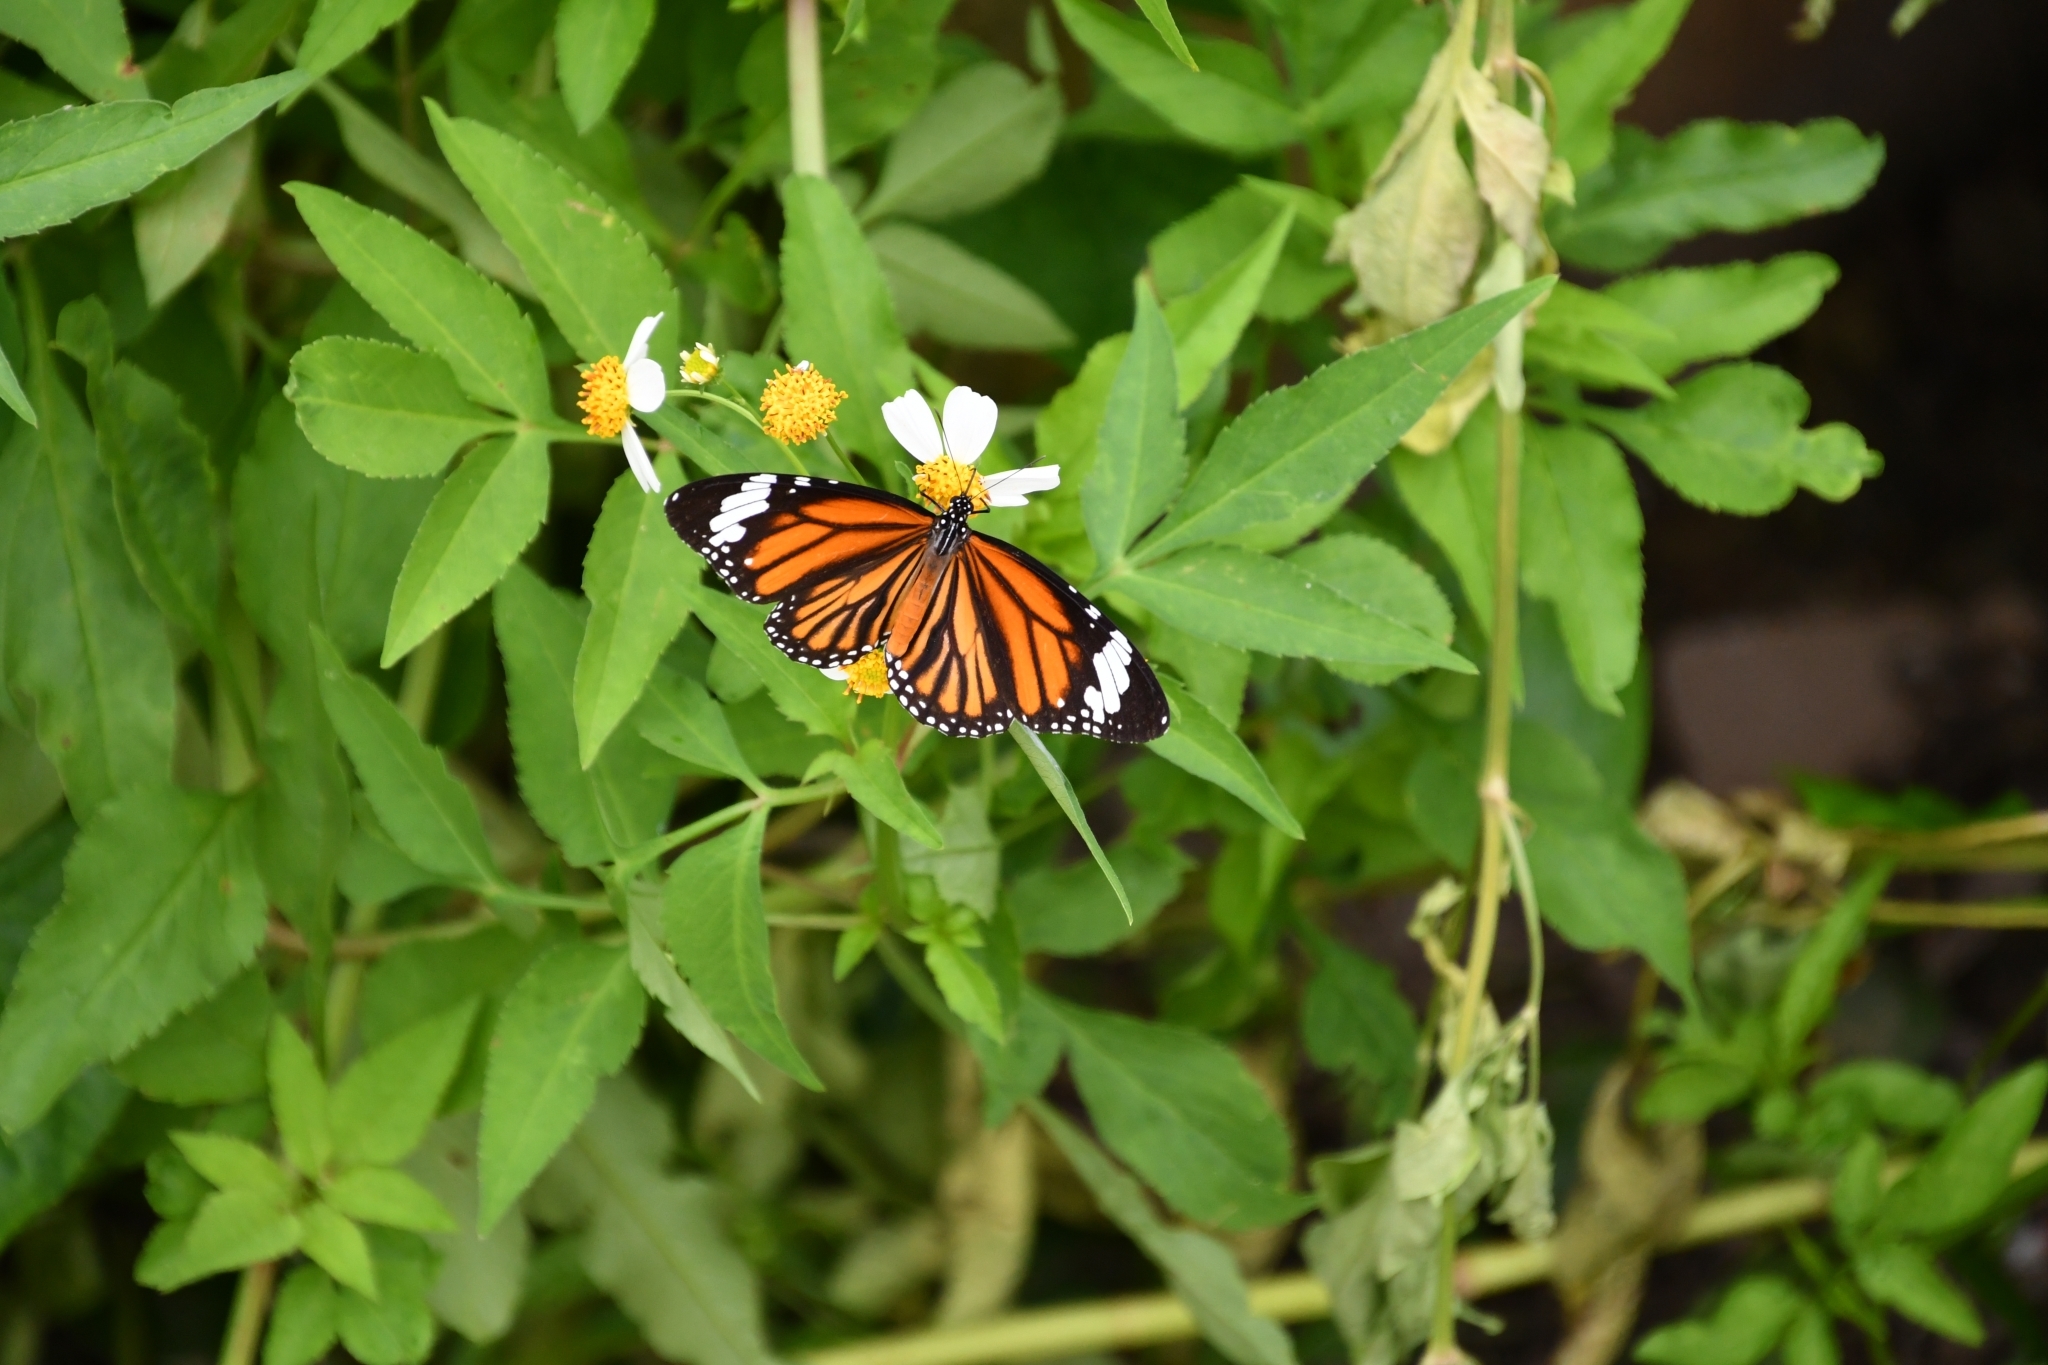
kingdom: Animalia
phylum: Arthropoda
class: Insecta
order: Lepidoptera
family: Nymphalidae
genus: Danaus
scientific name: Danaus genutia
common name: Common tiger butterfly
